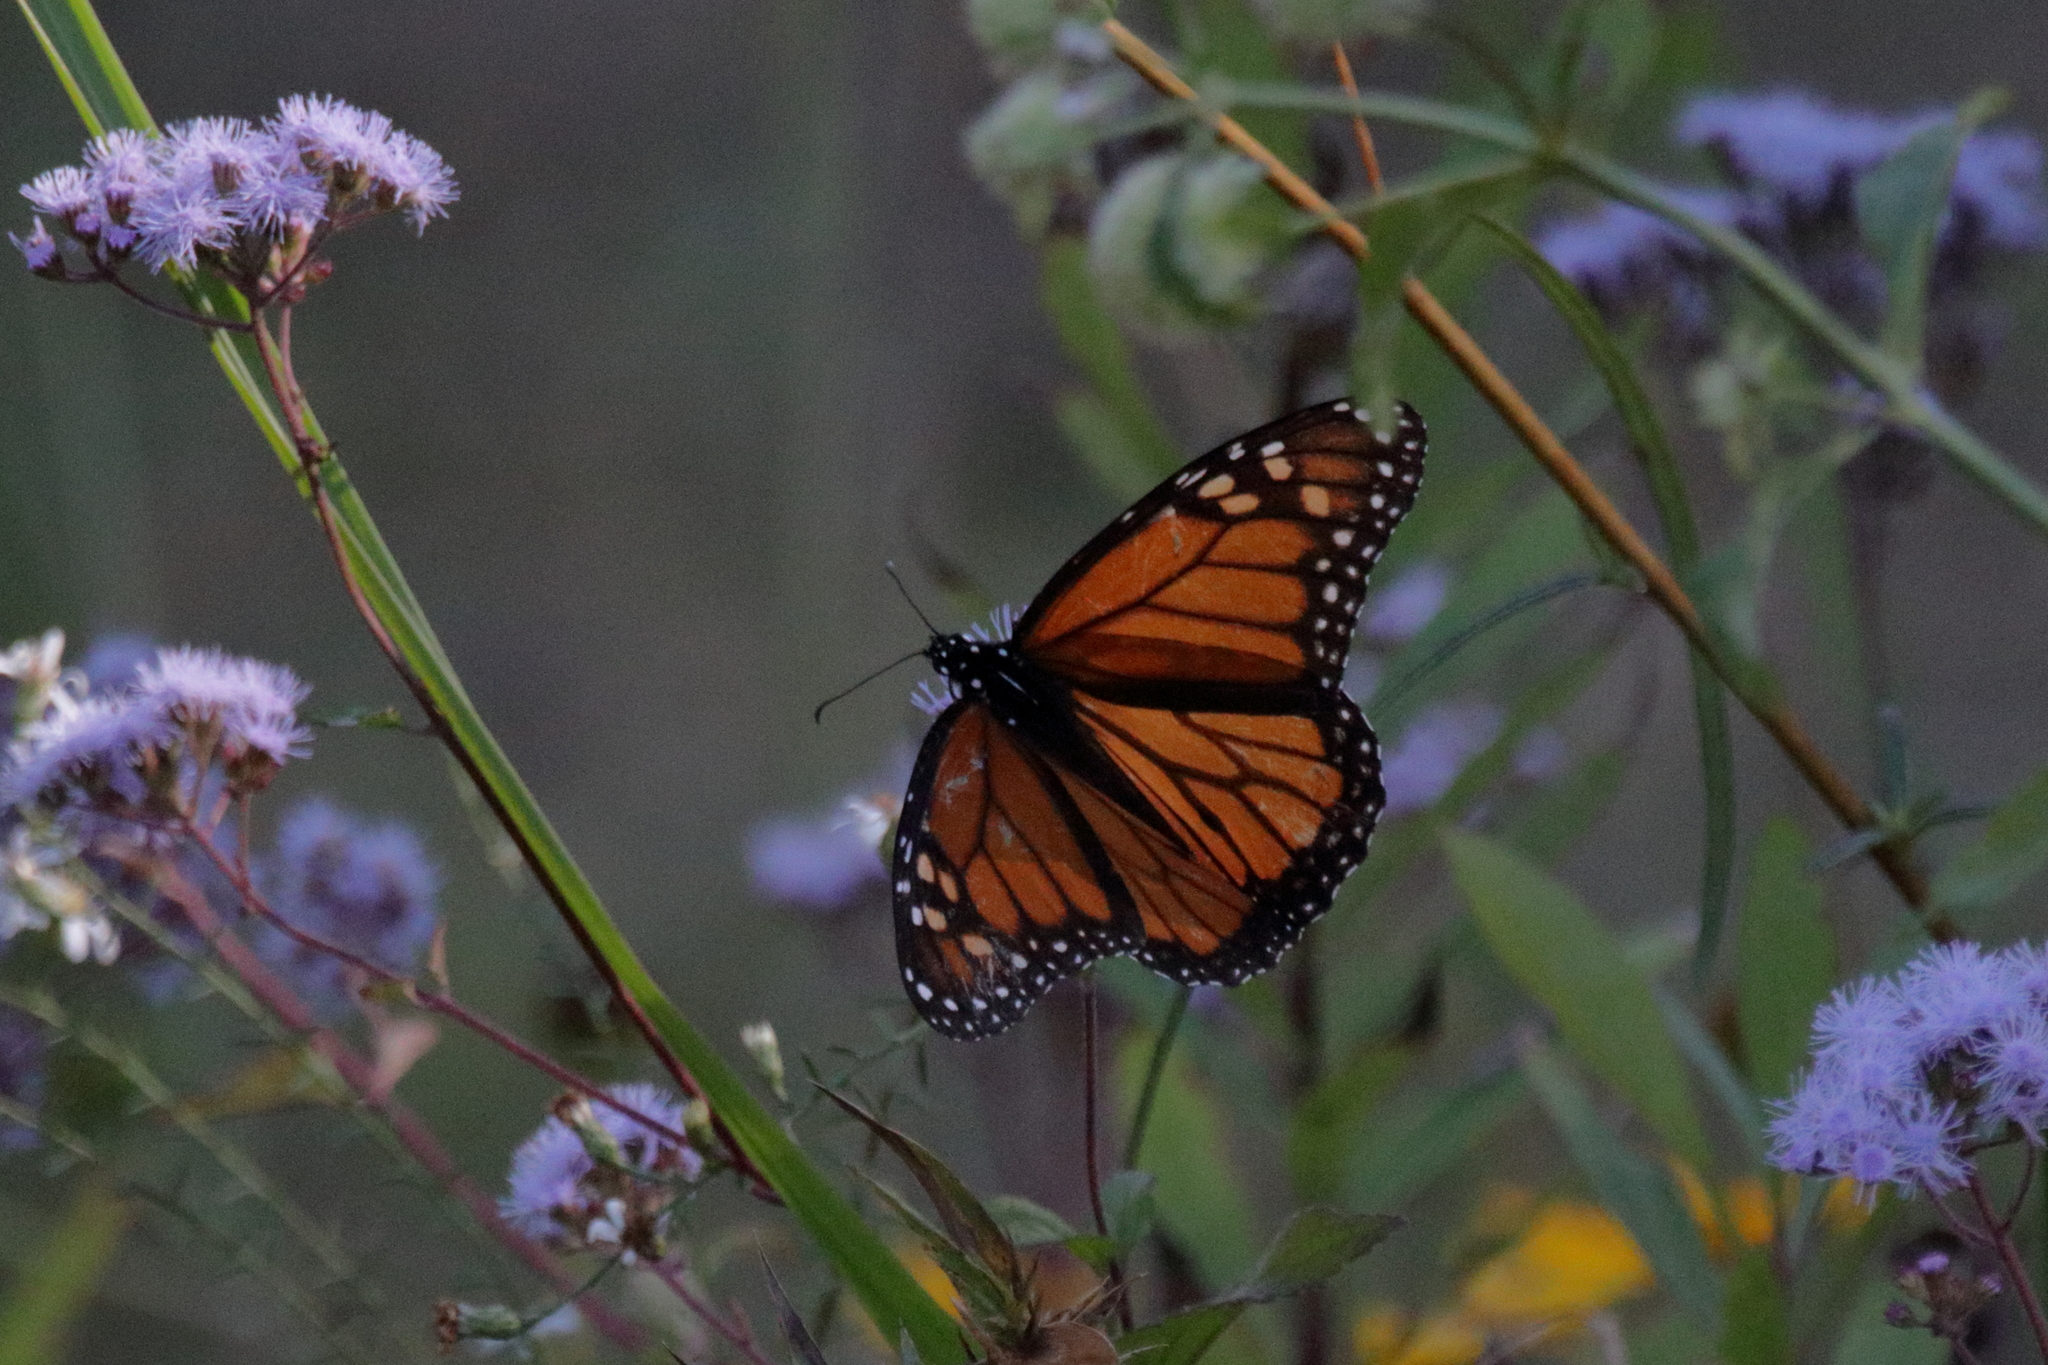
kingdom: Animalia
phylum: Arthropoda
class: Insecta
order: Lepidoptera
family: Nymphalidae
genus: Danaus
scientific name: Danaus plexippus
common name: Monarch
